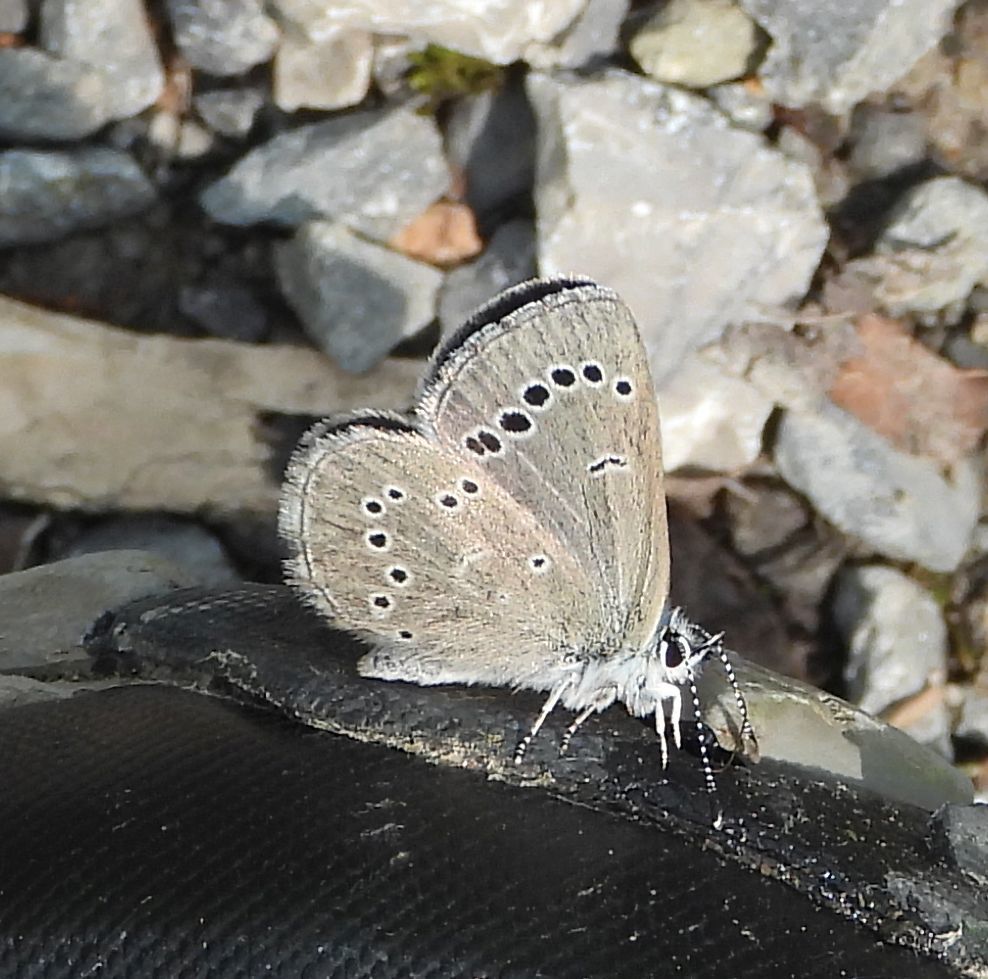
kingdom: Animalia
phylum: Arthropoda
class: Insecta
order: Lepidoptera
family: Lycaenidae
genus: Glaucopsyche
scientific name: Glaucopsyche lygdamus
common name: Silvery blue
